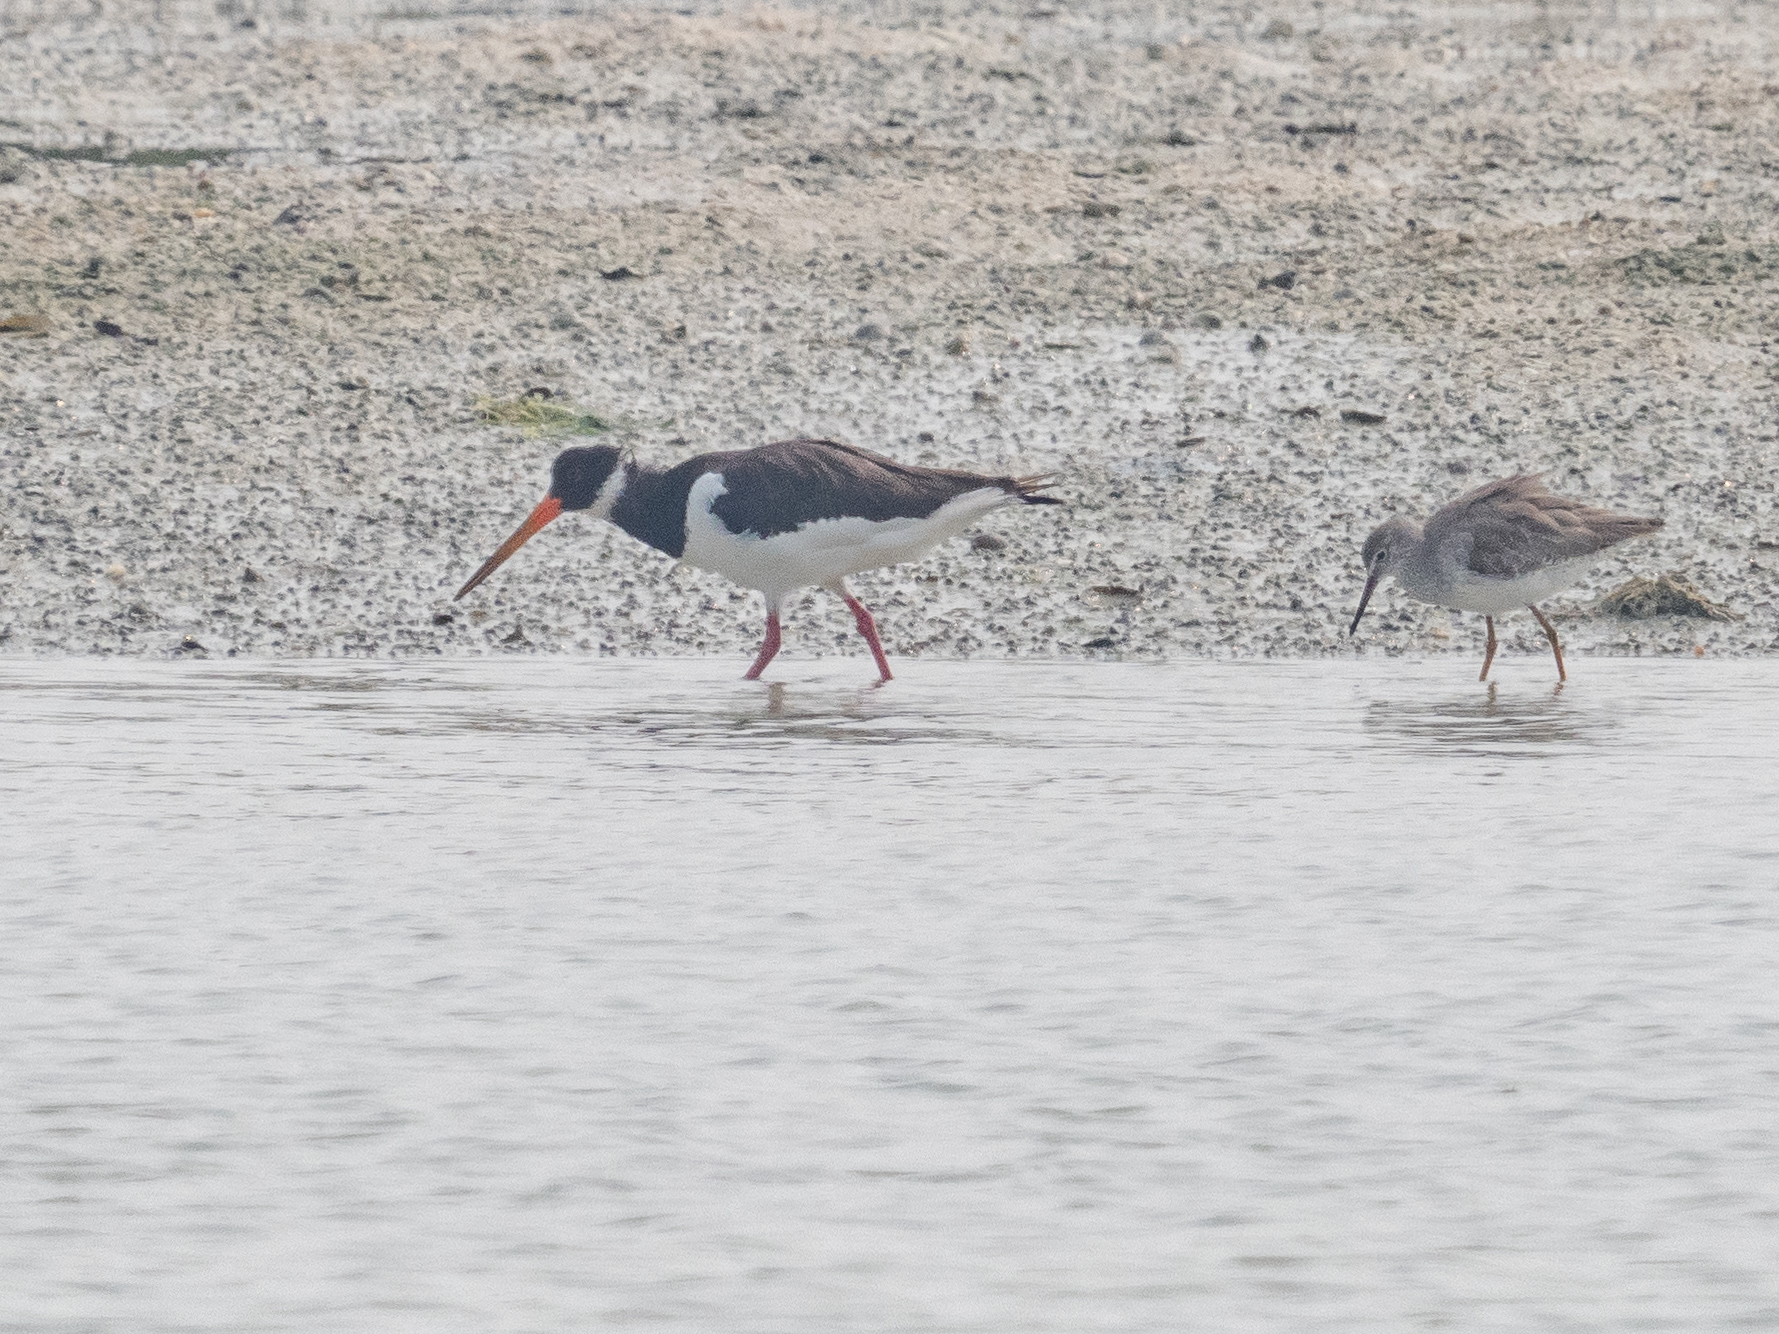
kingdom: Animalia
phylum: Chordata
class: Aves
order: Charadriiformes
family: Haematopodidae
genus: Haematopus
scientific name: Haematopus ostralegus
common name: Eurasian oystercatcher
